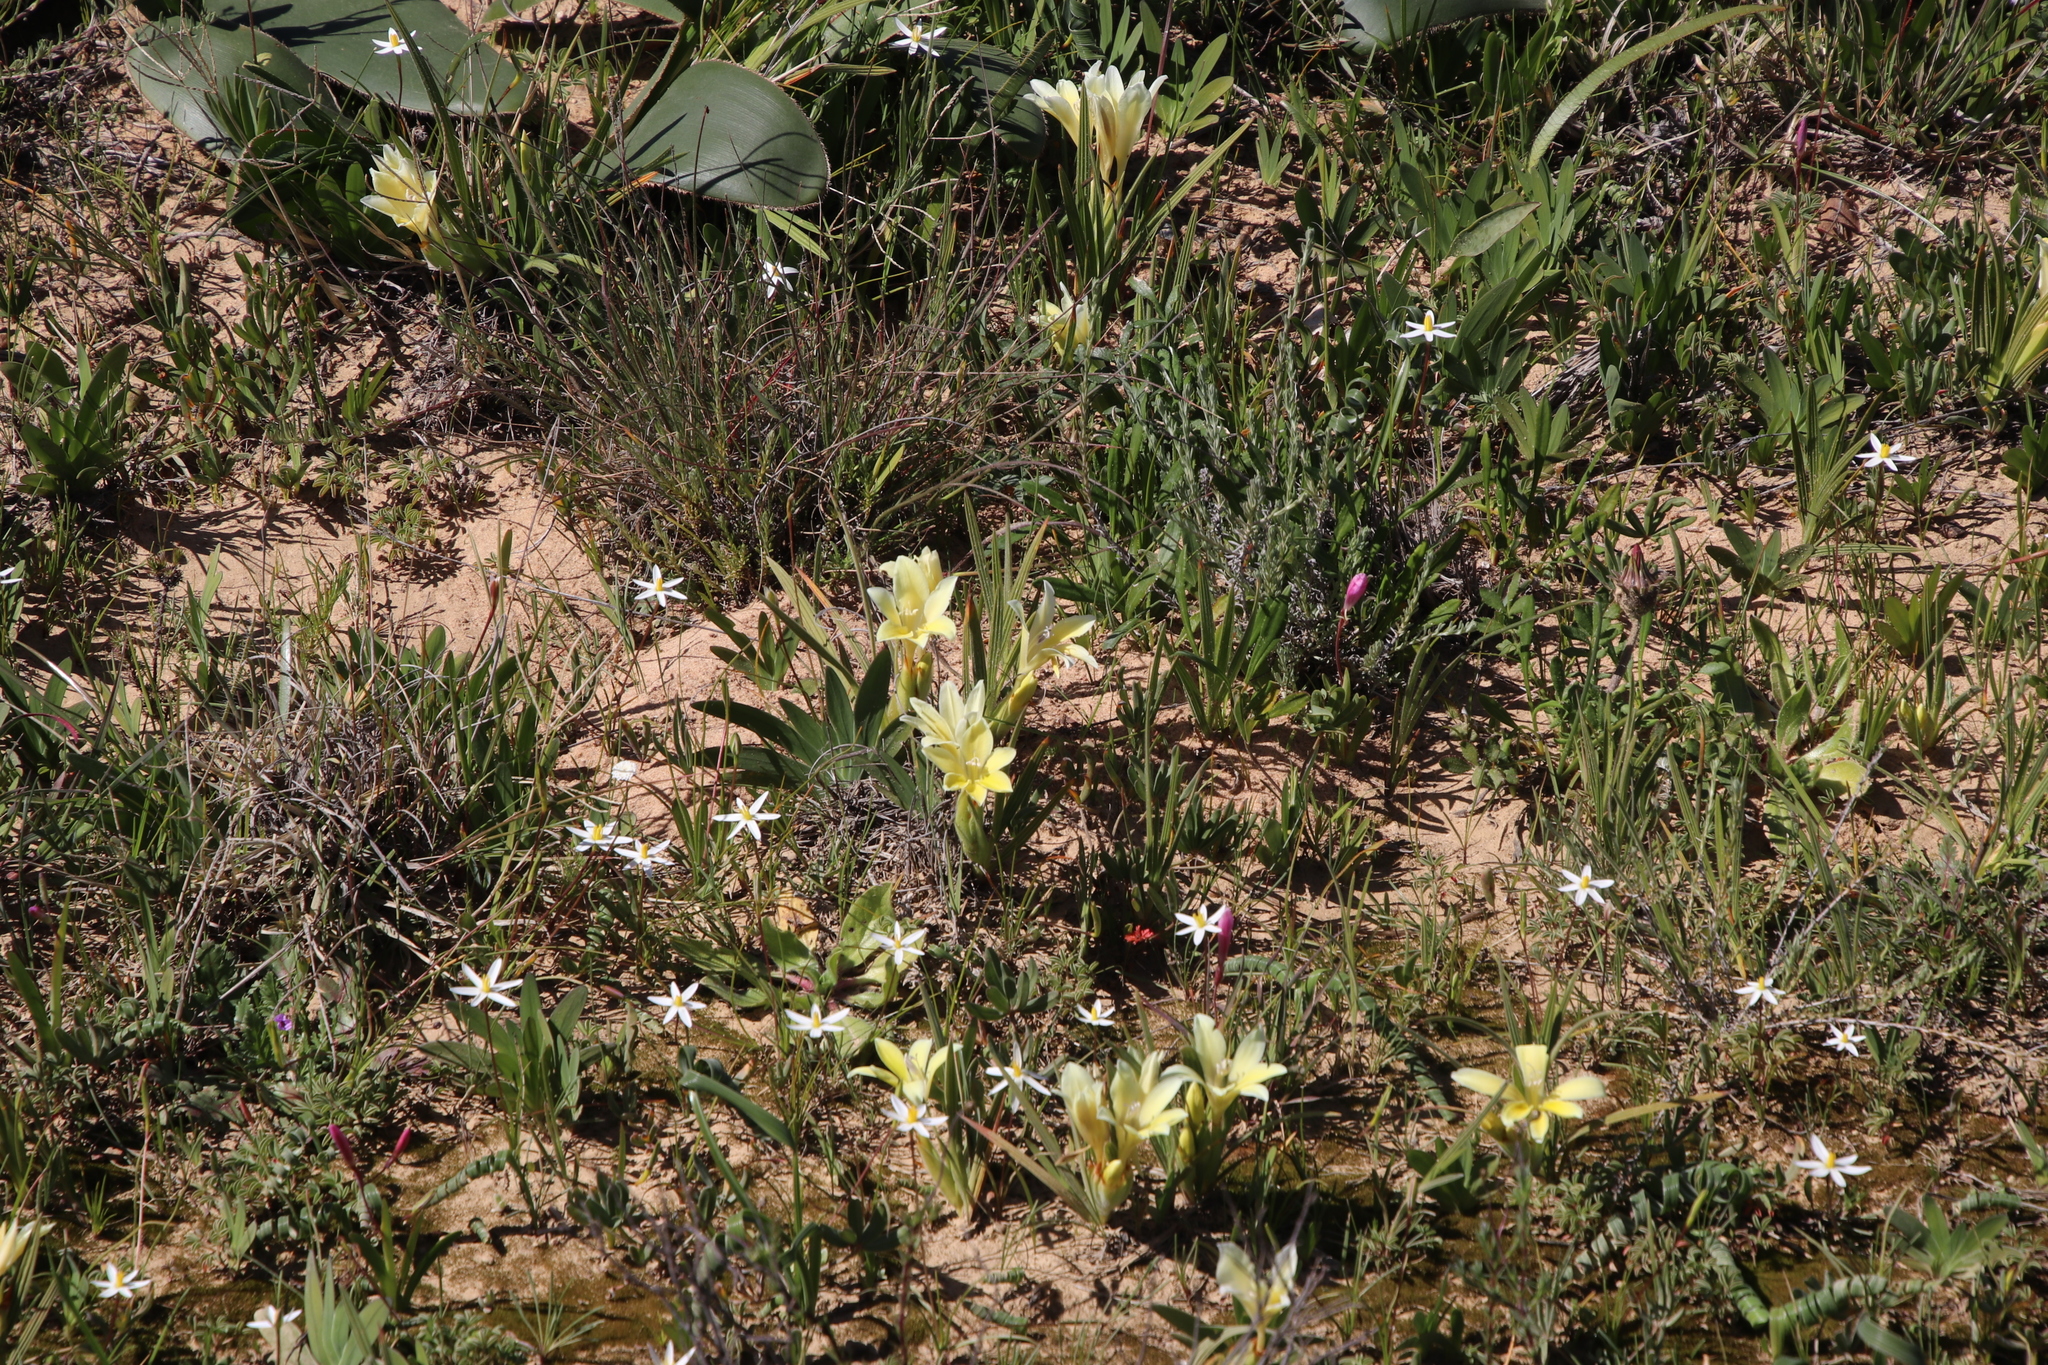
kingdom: Plantae
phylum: Tracheophyta
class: Liliopsida
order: Asparagales
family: Iridaceae
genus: Babiana
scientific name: Babiana vanzijliae
